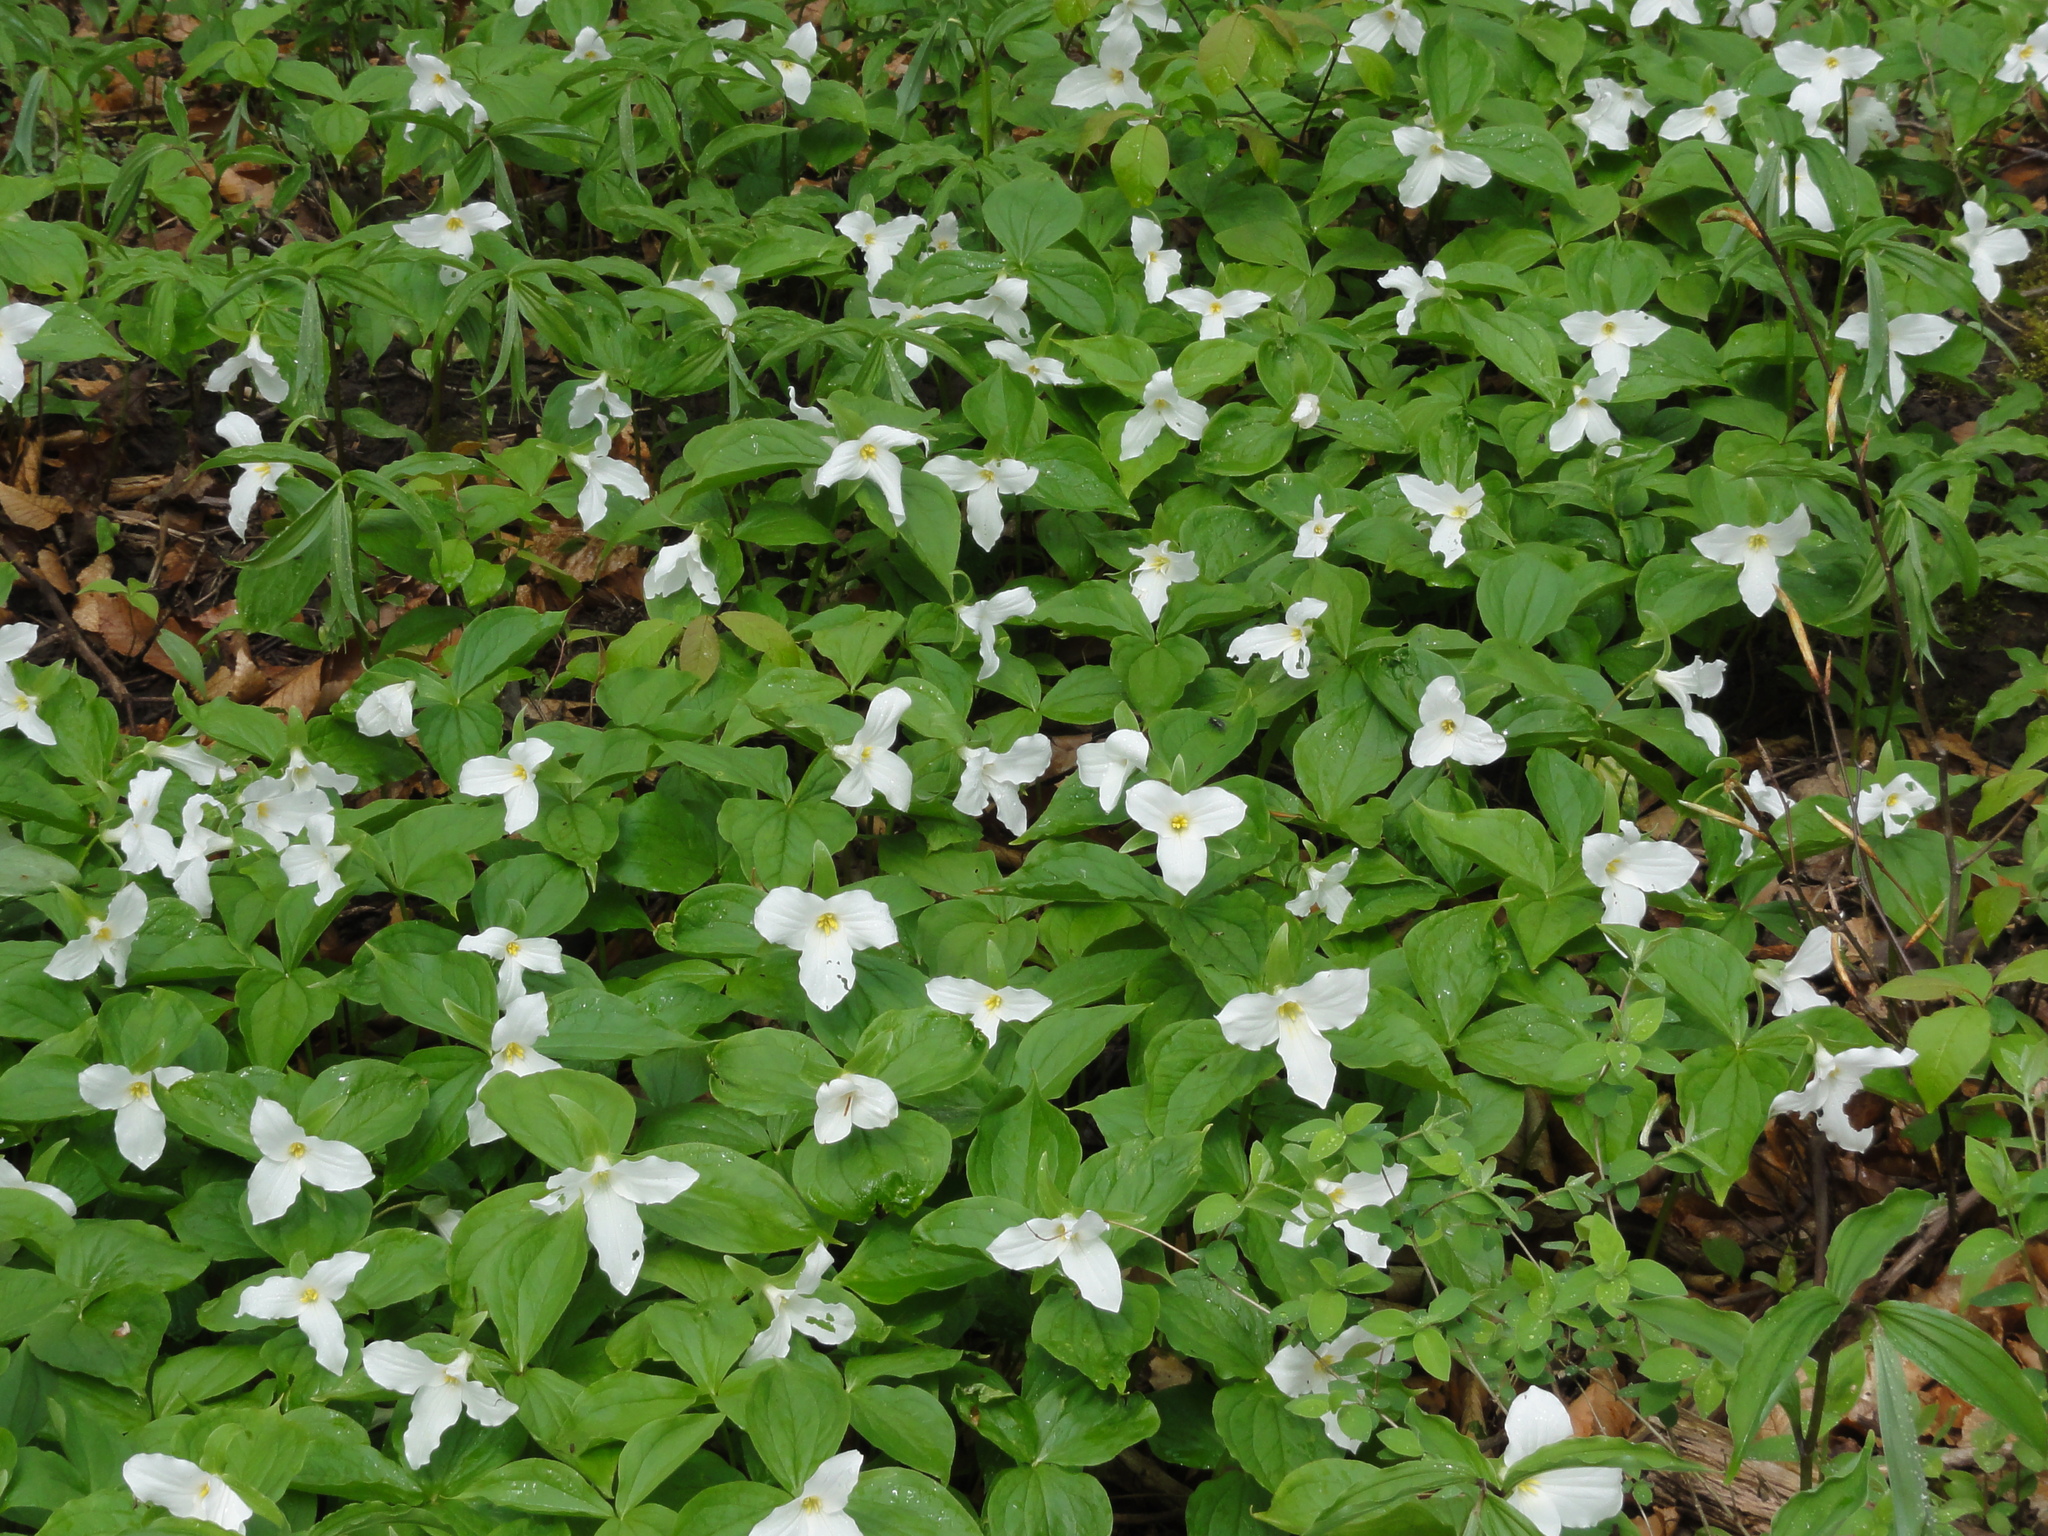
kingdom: Plantae
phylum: Tracheophyta
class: Liliopsida
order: Liliales
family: Melanthiaceae
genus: Trillium
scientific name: Trillium grandiflorum
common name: Great white trillium
